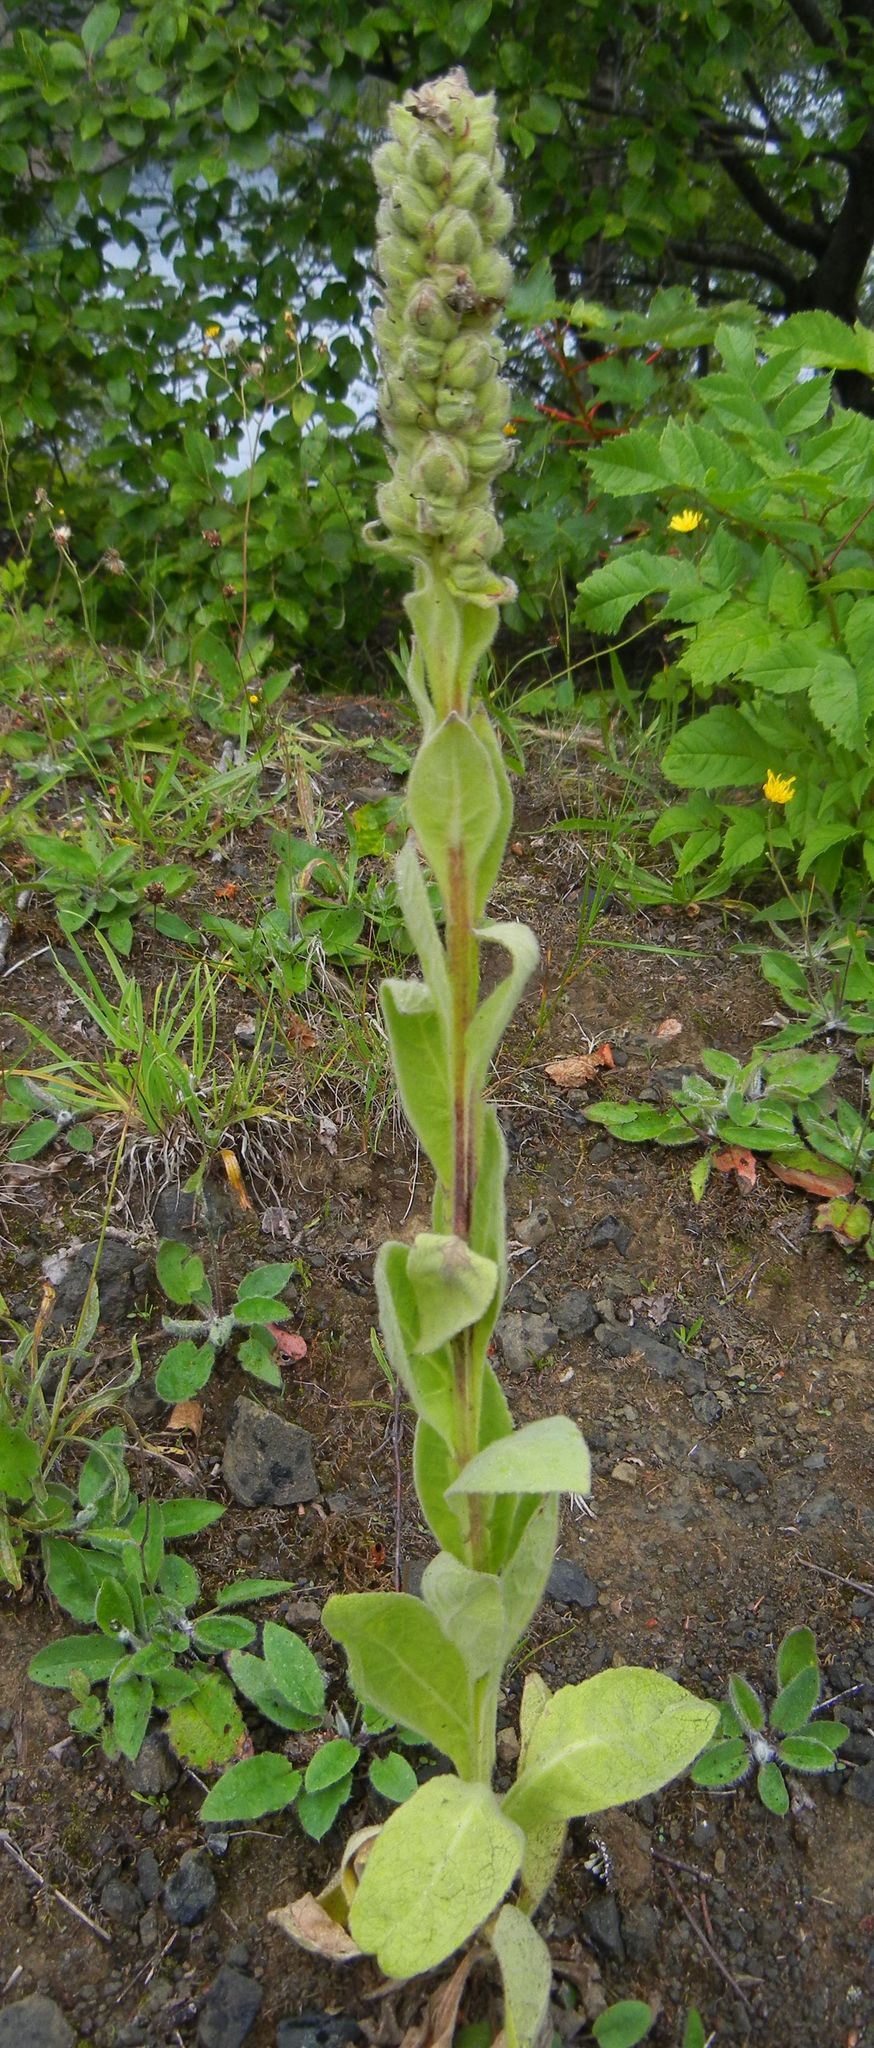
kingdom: Plantae
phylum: Tracheophyta
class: Magnoliopsida
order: Lamiales
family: Scrophulariaceae
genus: Verbascum
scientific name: Verbascum thapsus
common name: Common mullein
